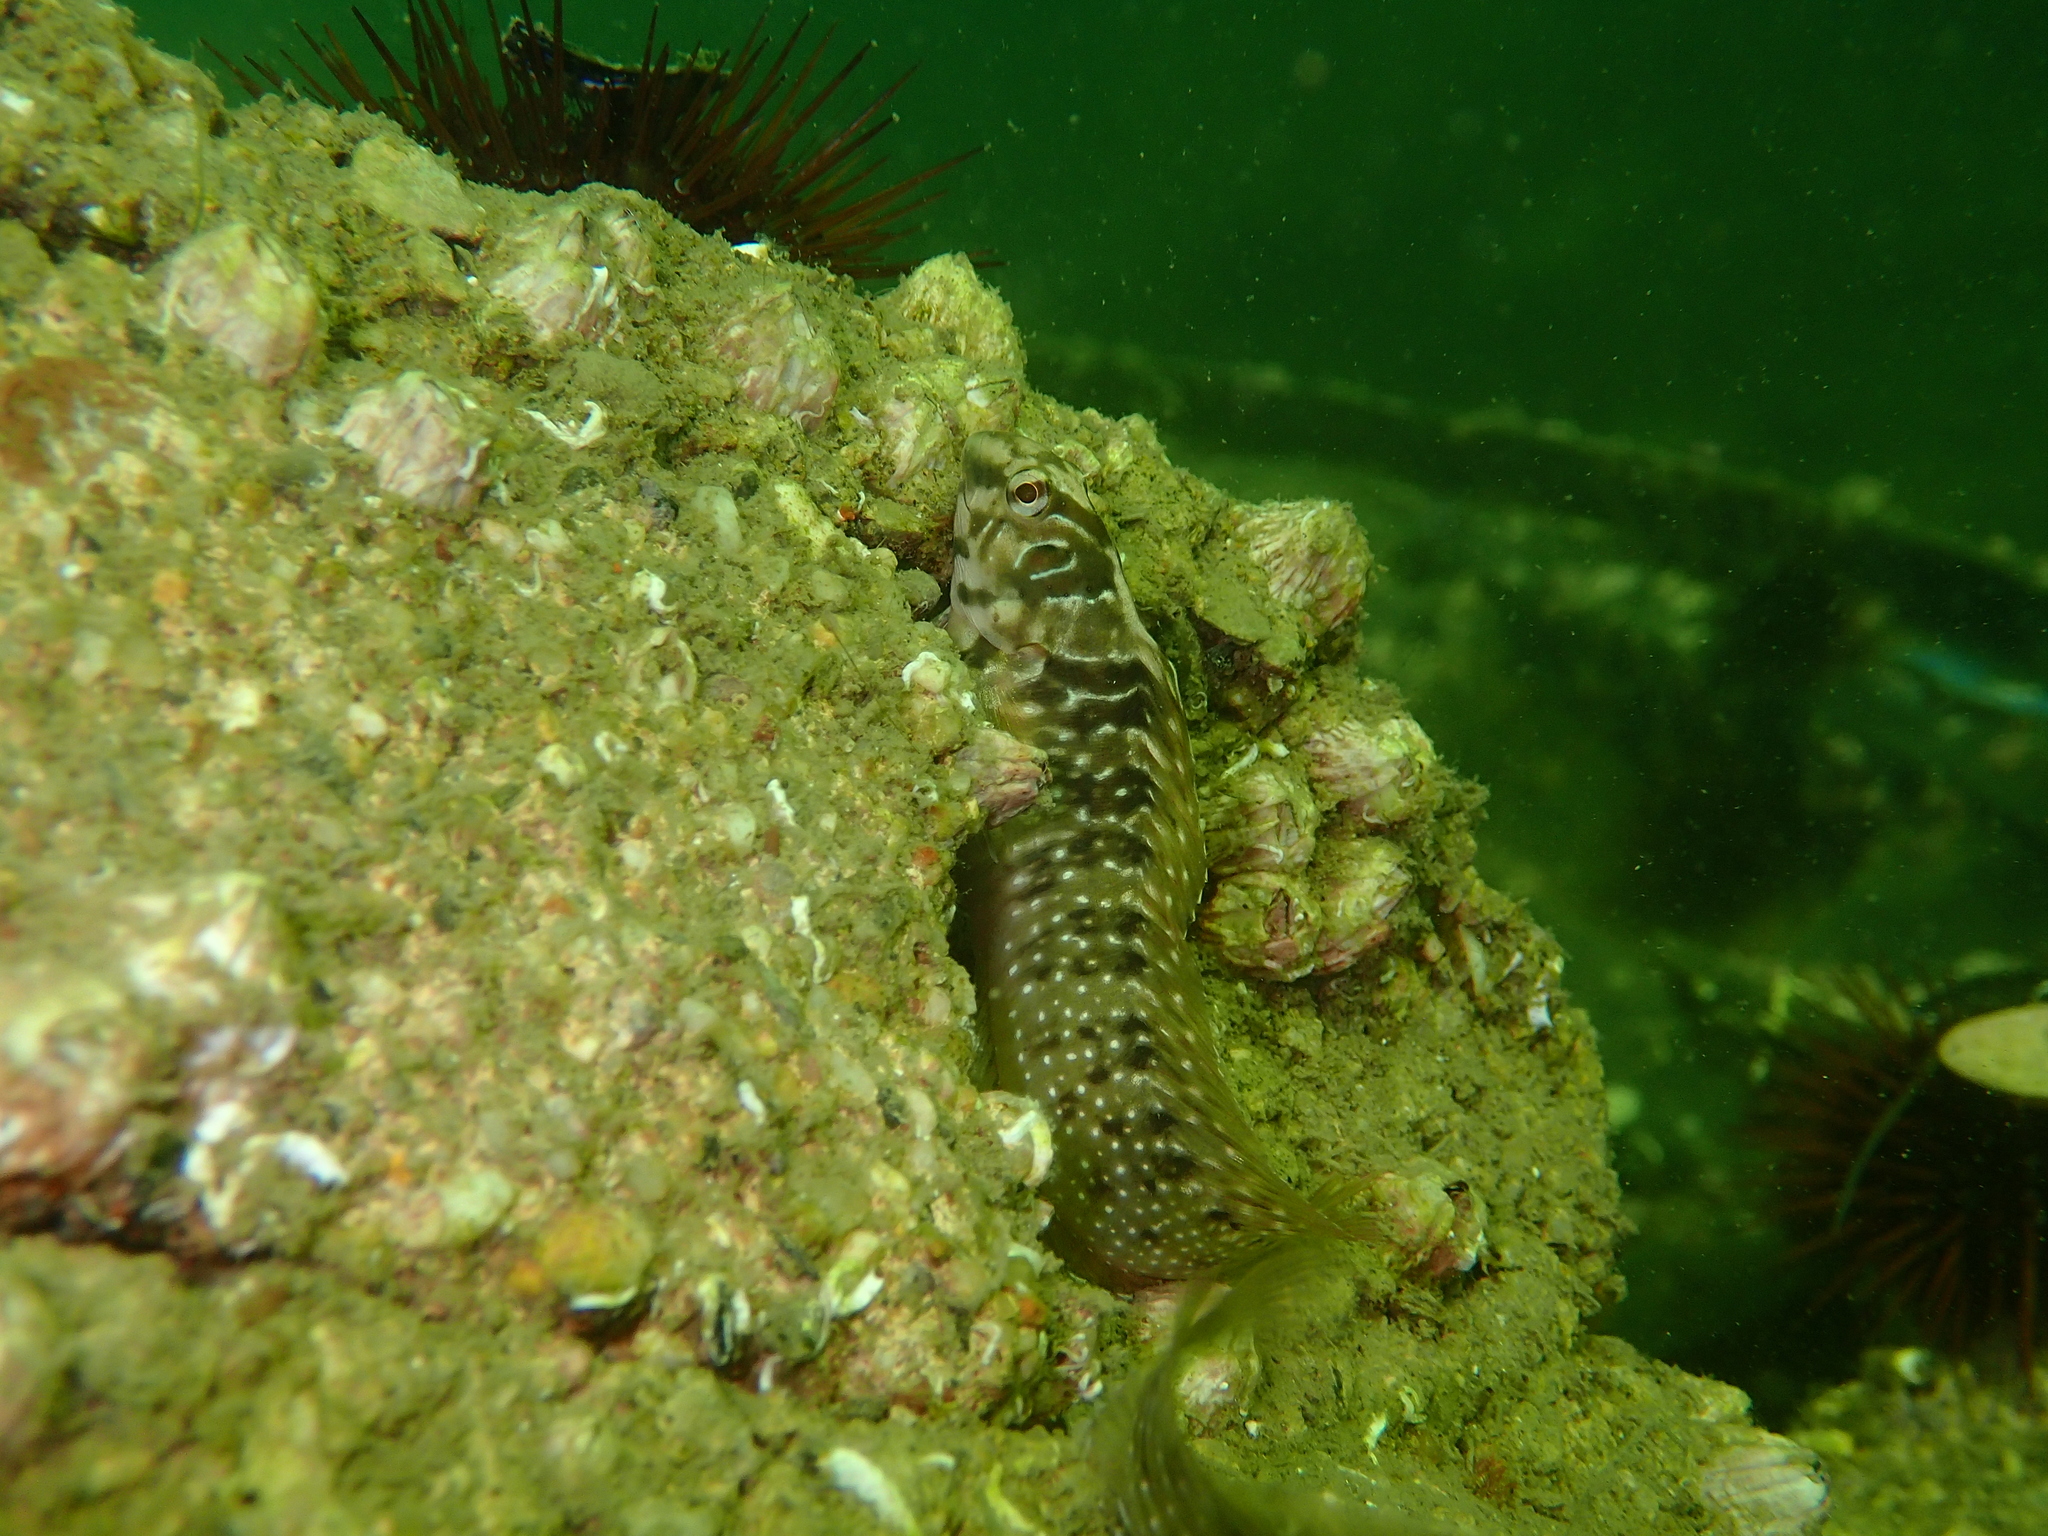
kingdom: Animalia
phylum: Chordata
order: Perciformes
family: Blenniidae
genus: Salaria
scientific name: Salaria pavo
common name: Peacock blenny
